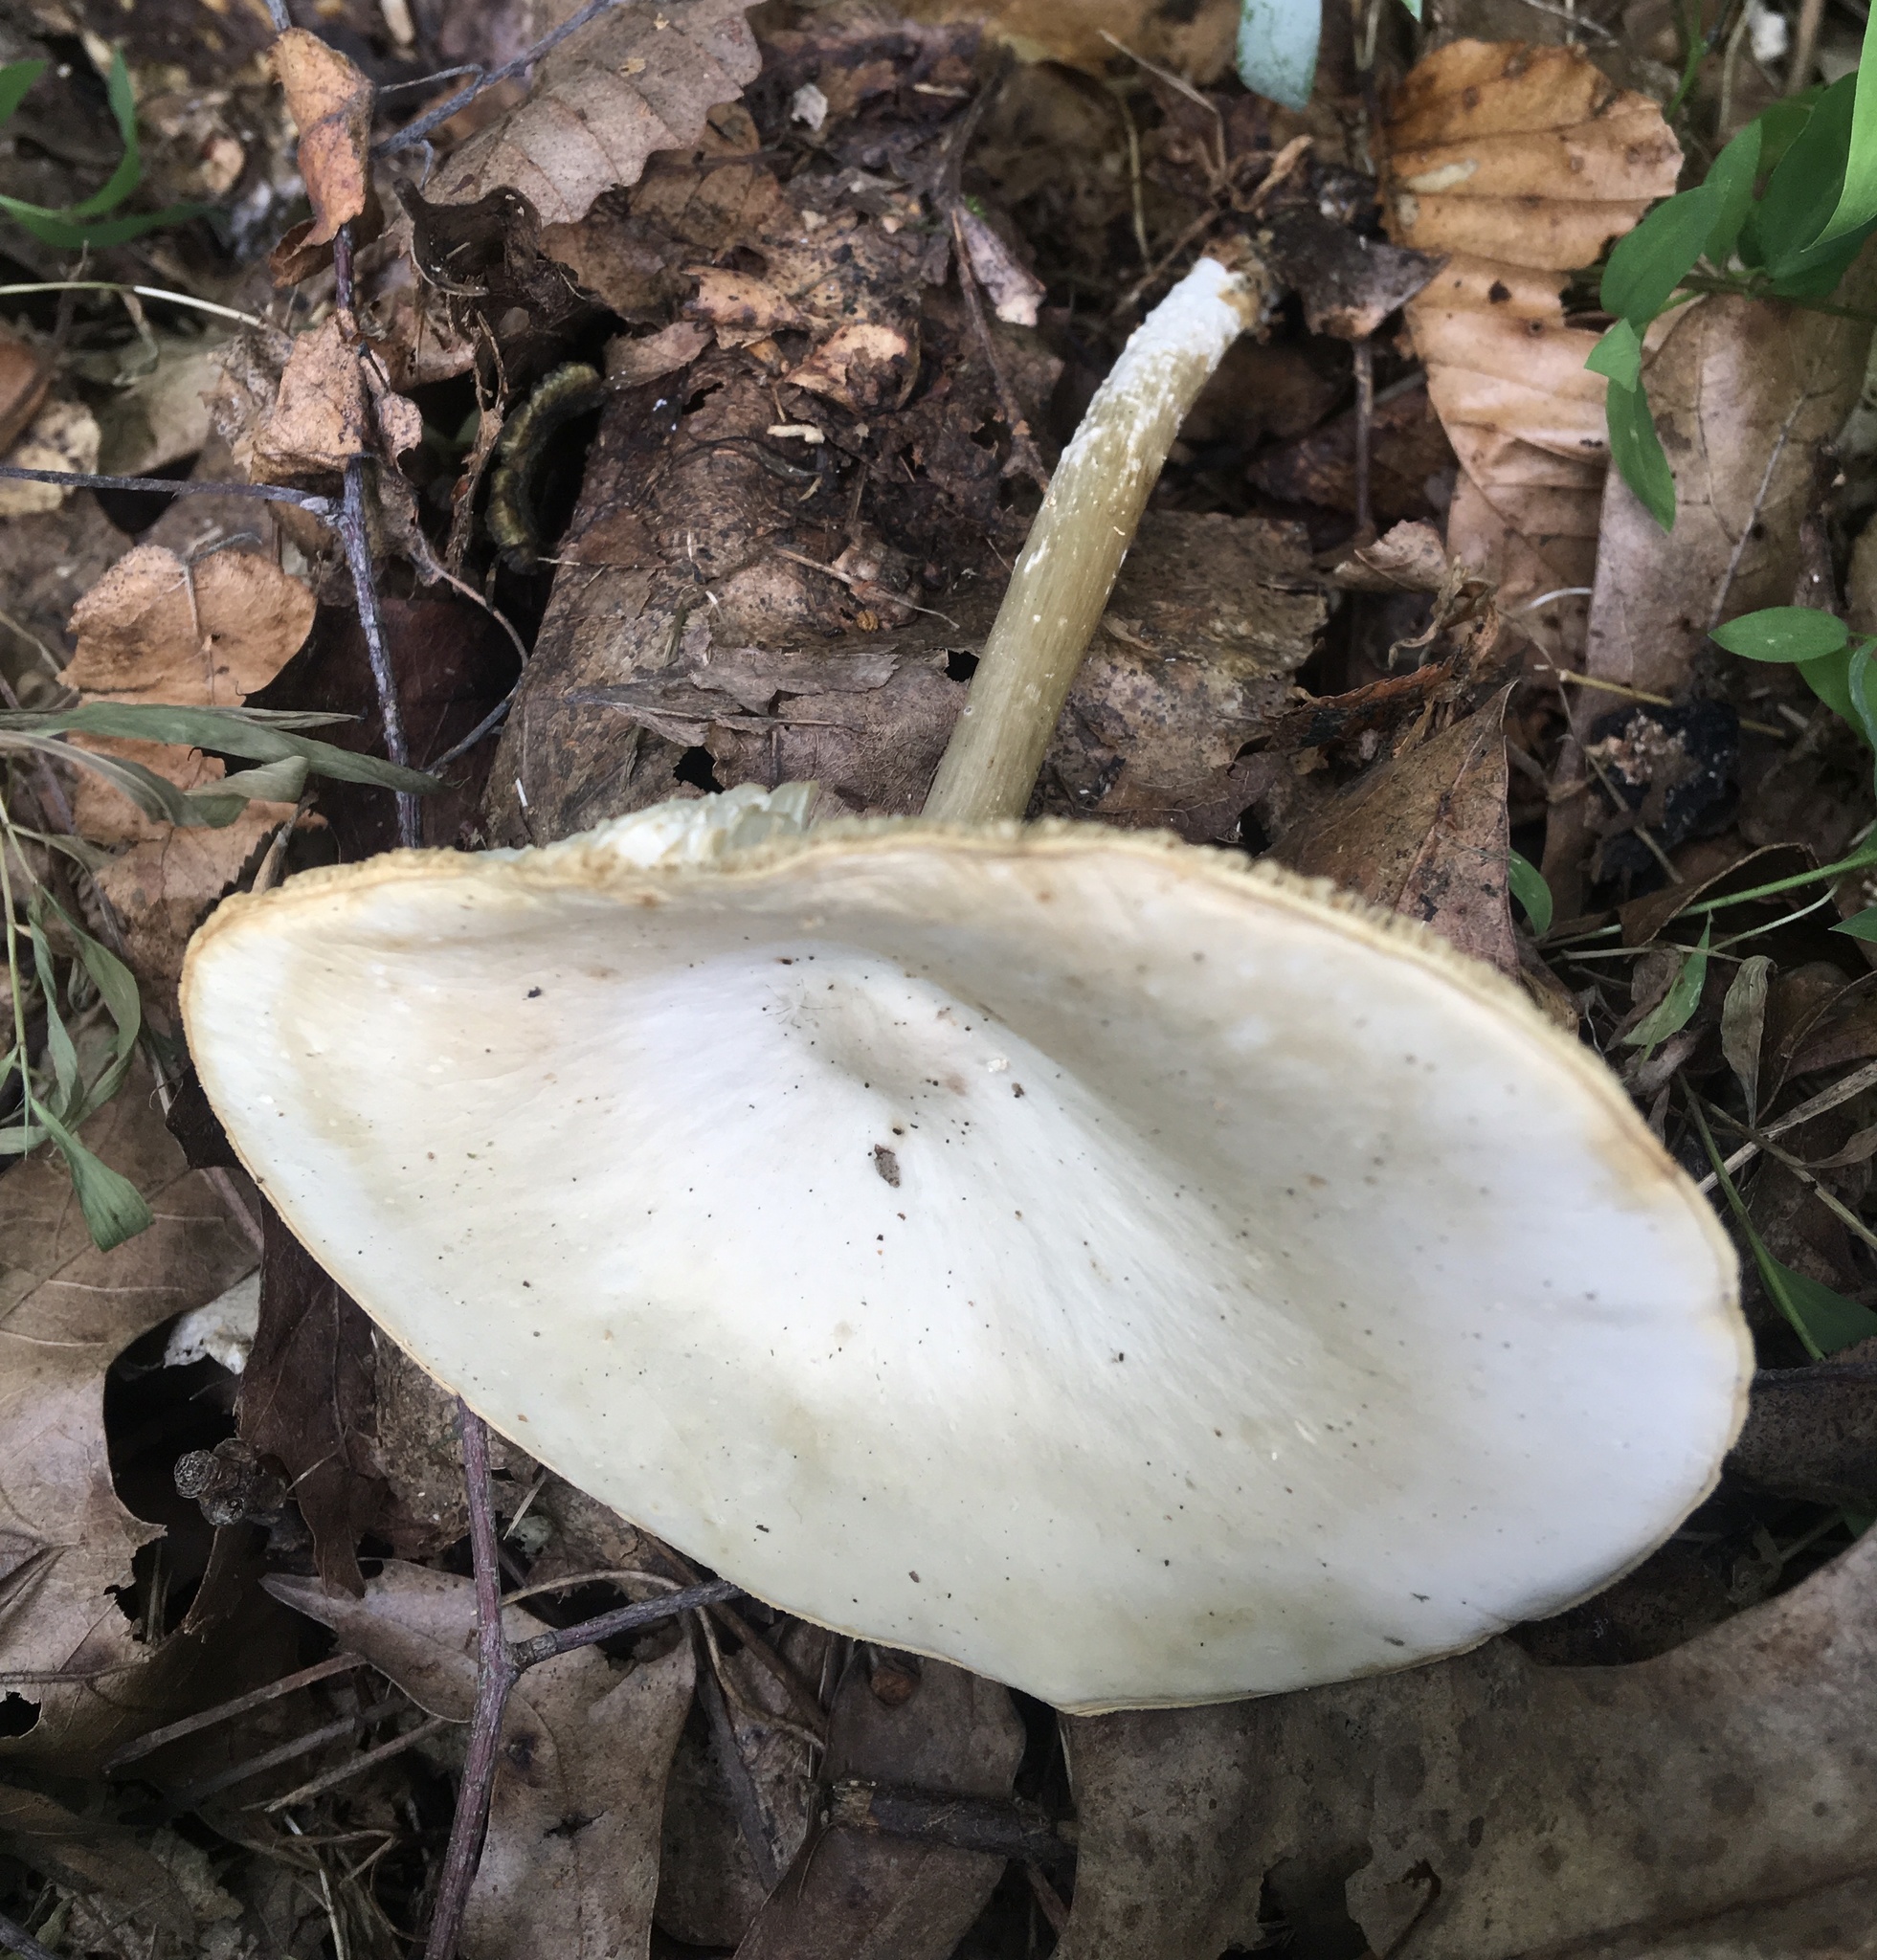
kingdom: Fungi
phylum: Basidiomycota
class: Agaricomycetes
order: Agaricales
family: Tricholomataceae
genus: Collybia
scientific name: Collybia alboflavida
